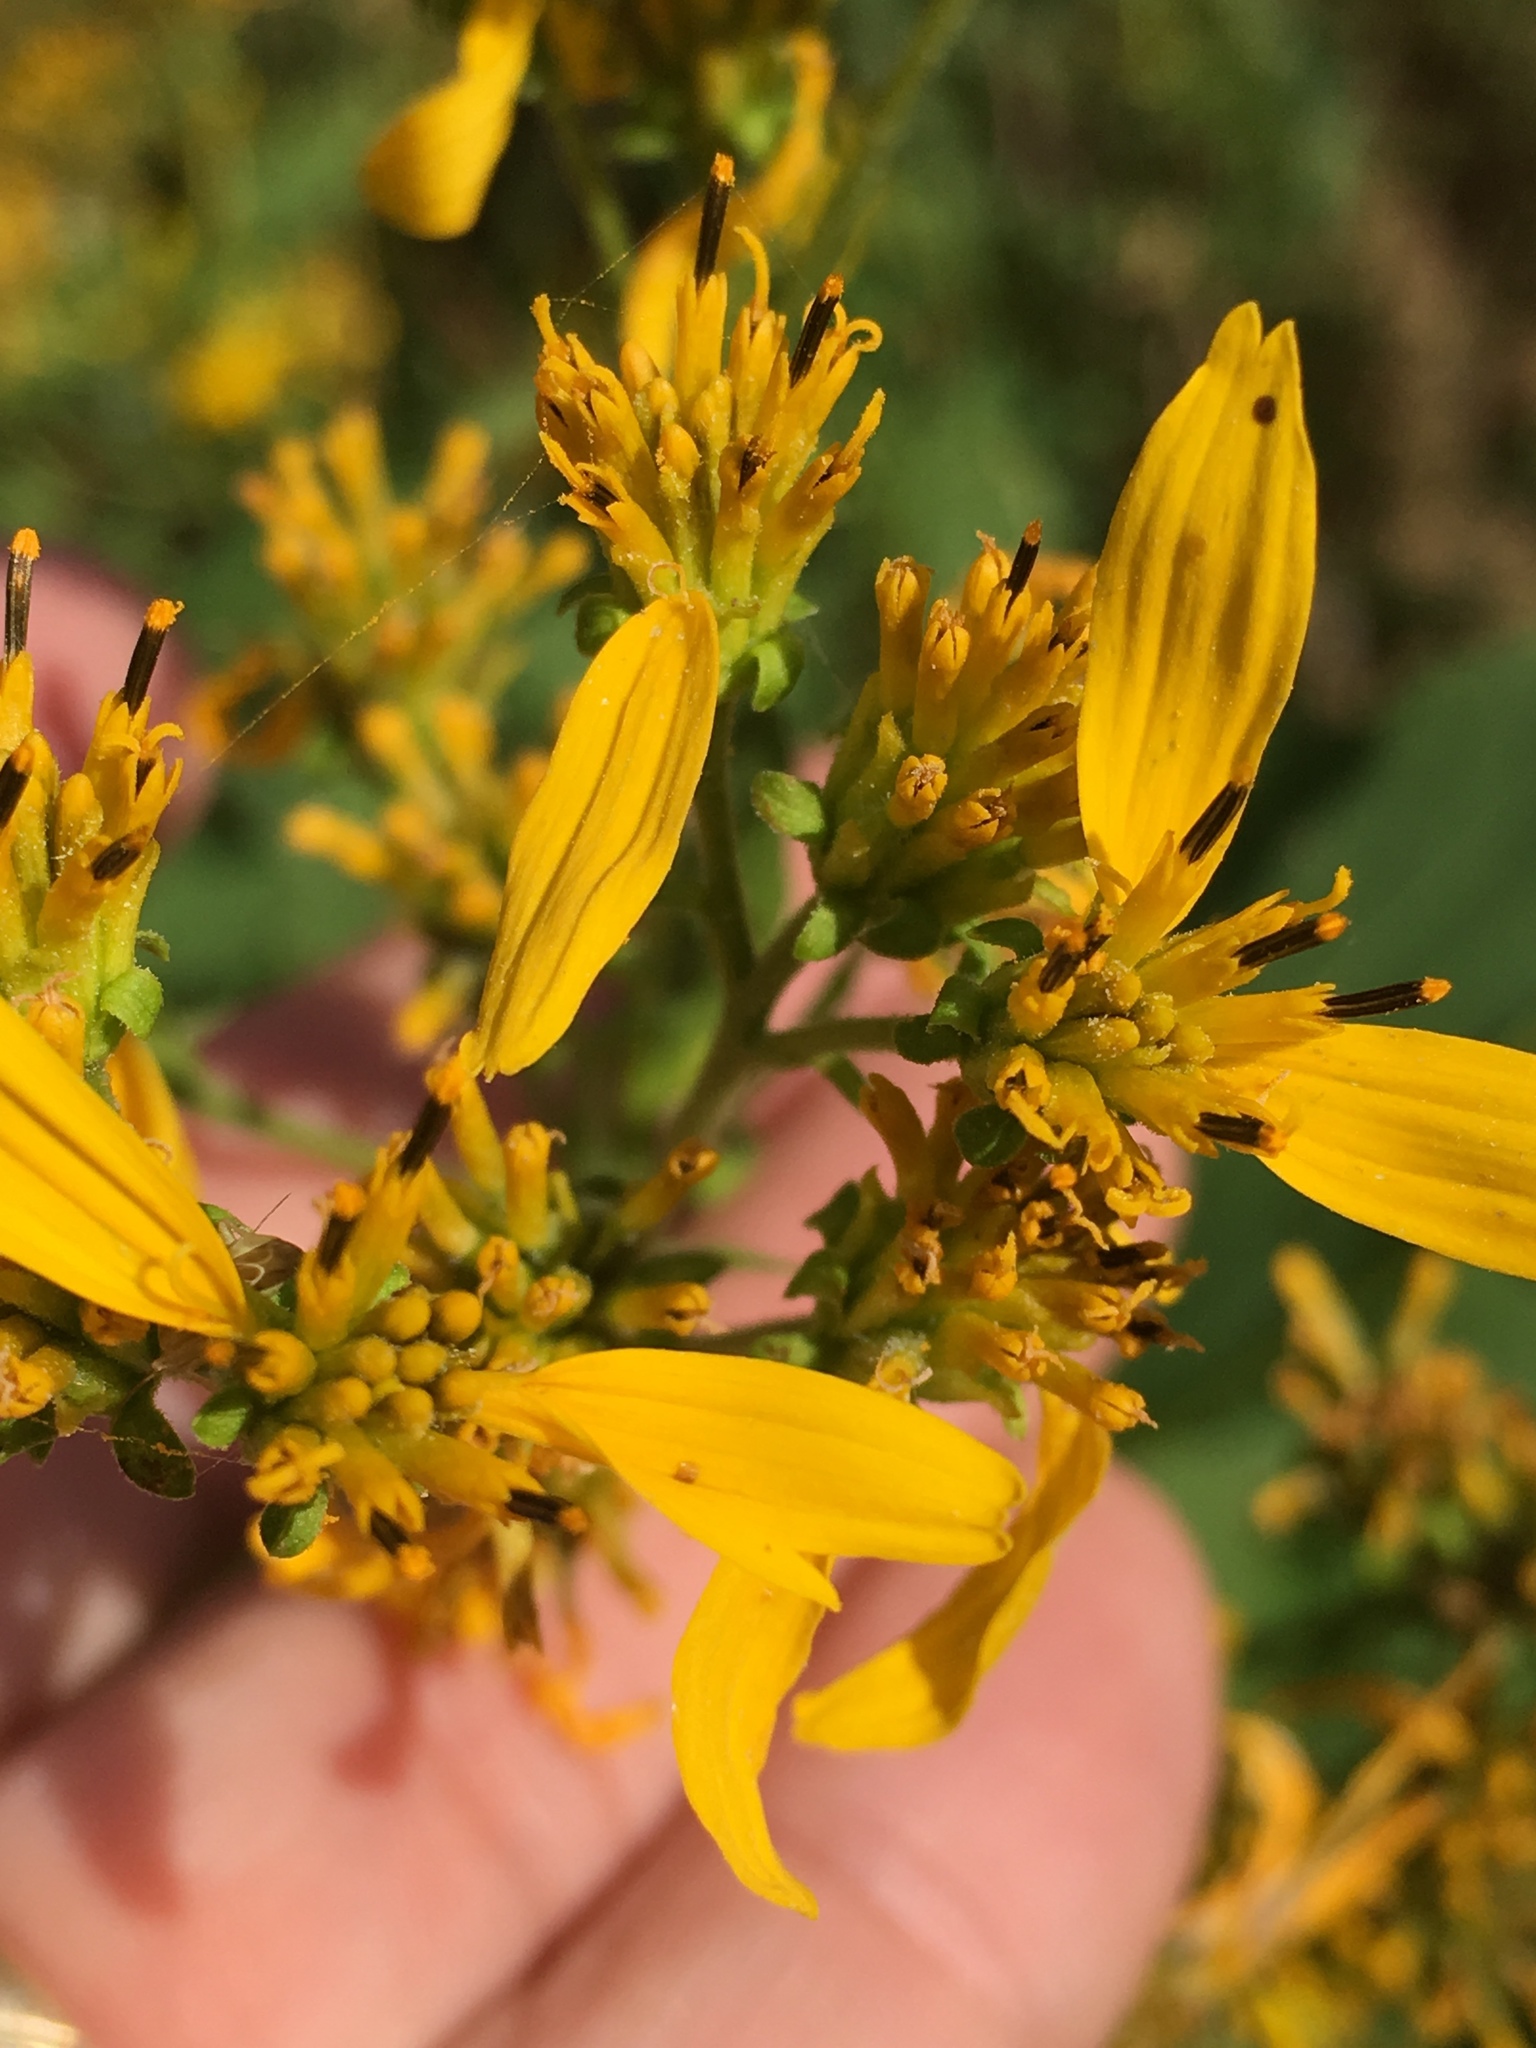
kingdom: Plantae
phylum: Tracheophyta
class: Magnoliopsida
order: Asterales
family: Asteraceae
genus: Verbesina
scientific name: Verbesina occidentalis
